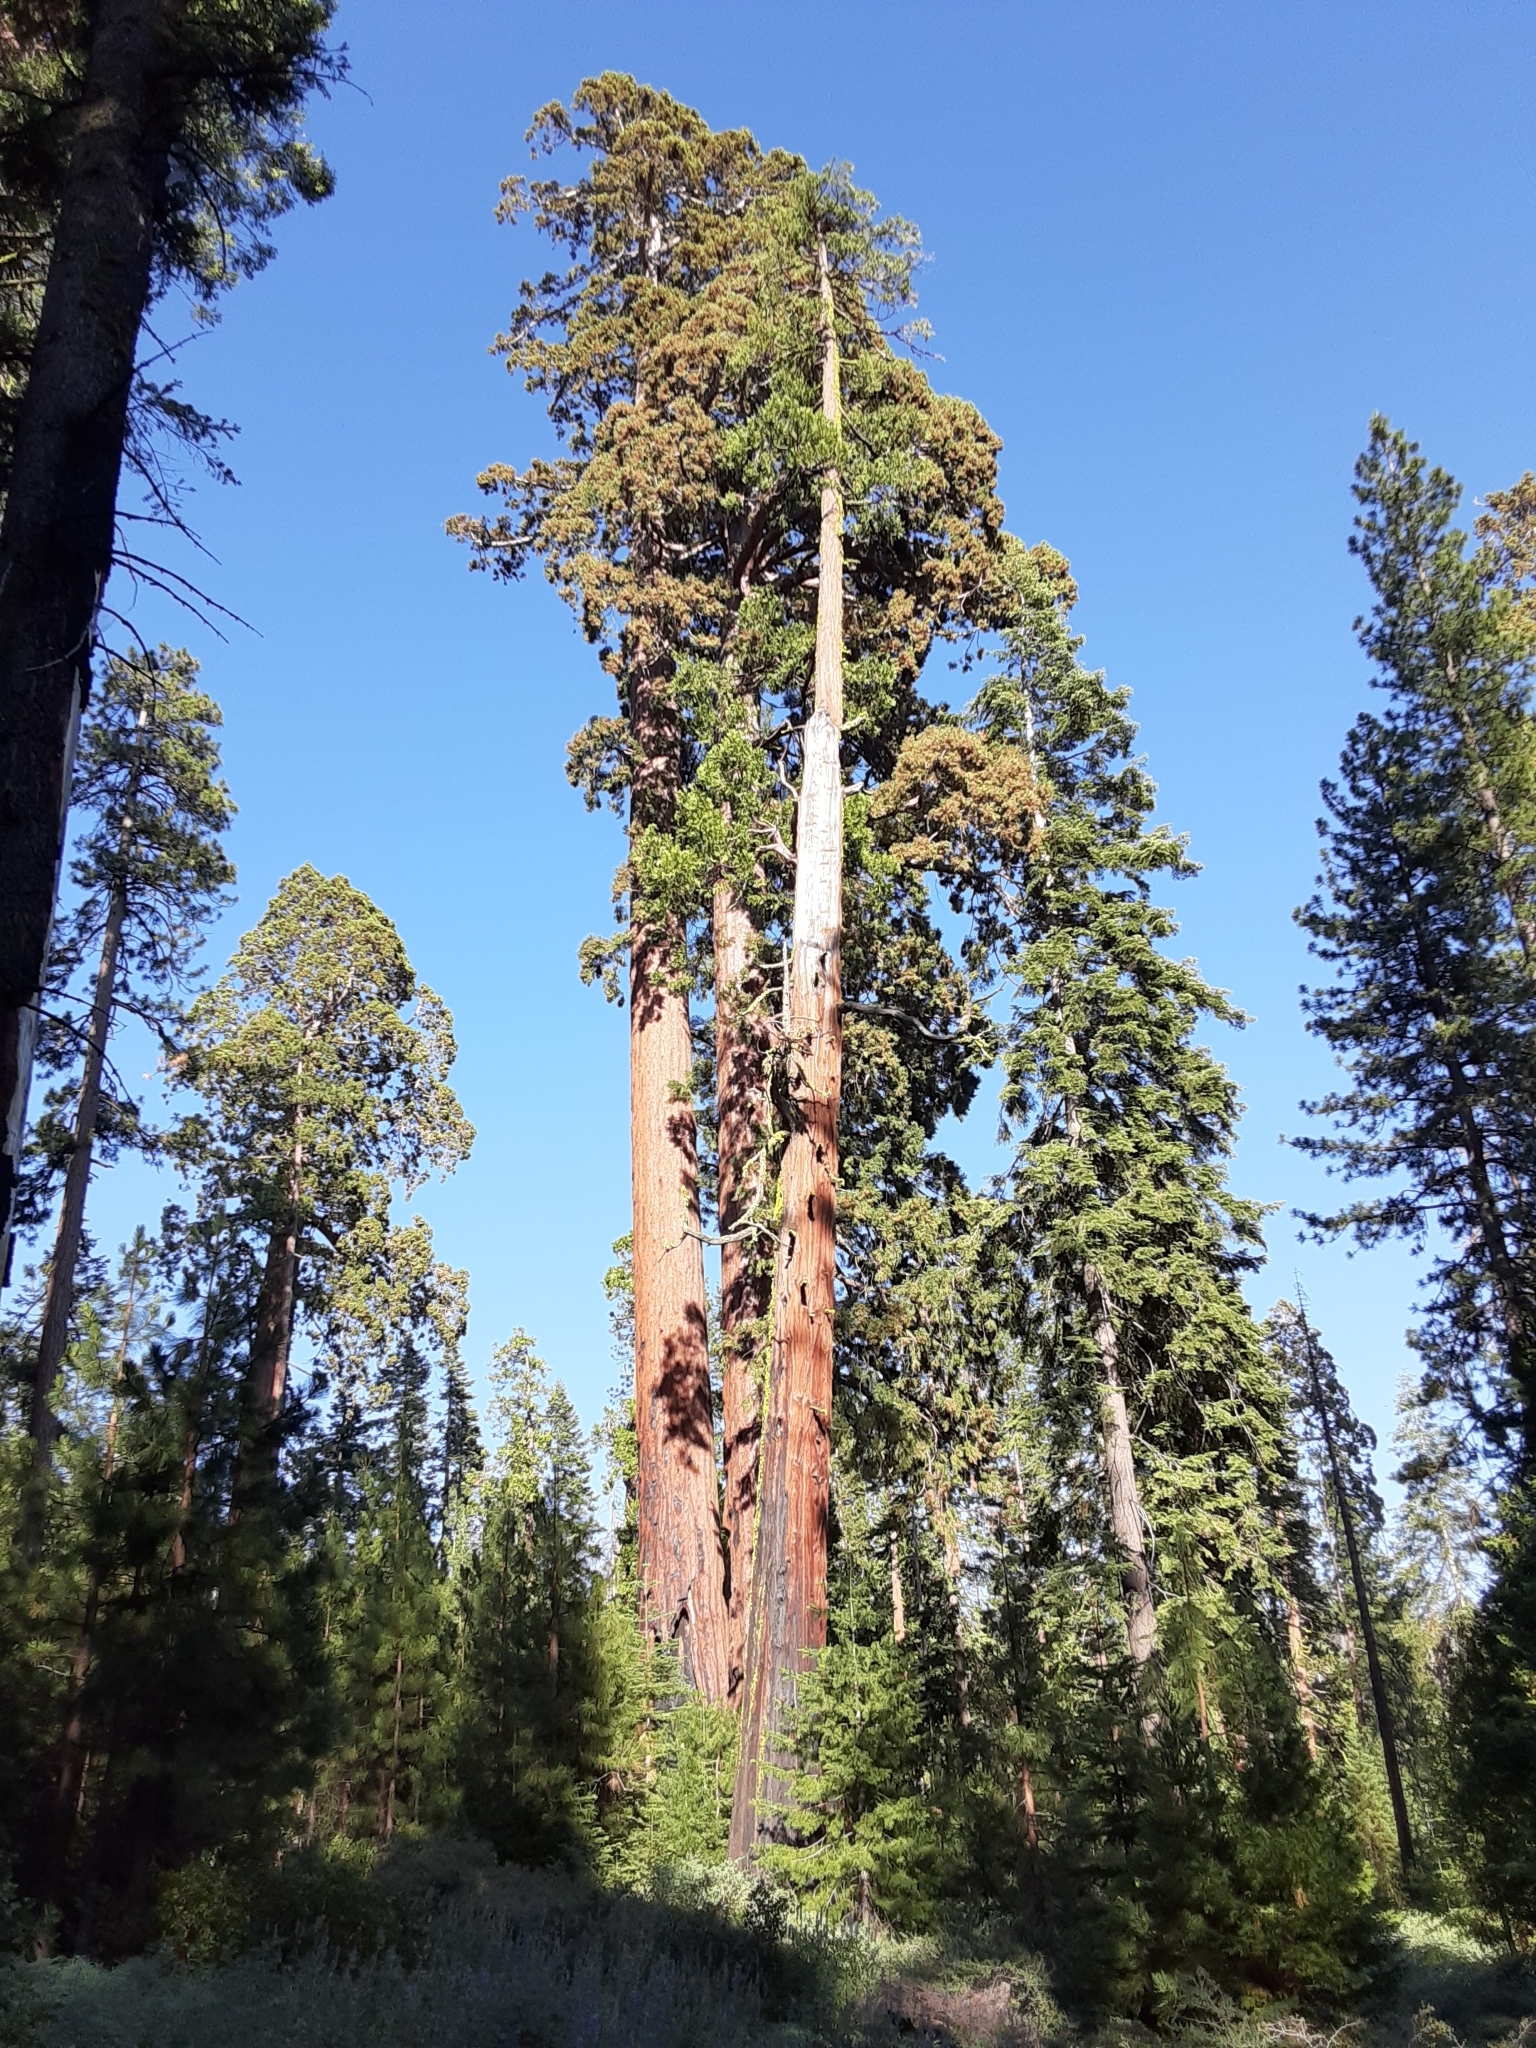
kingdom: Plantae
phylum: Tracheophyta
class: Pinopsida
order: Pinales
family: Cupressaceae
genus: Sequoiadendron
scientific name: Sequoiadendron giganteum
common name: Wellingtonia
